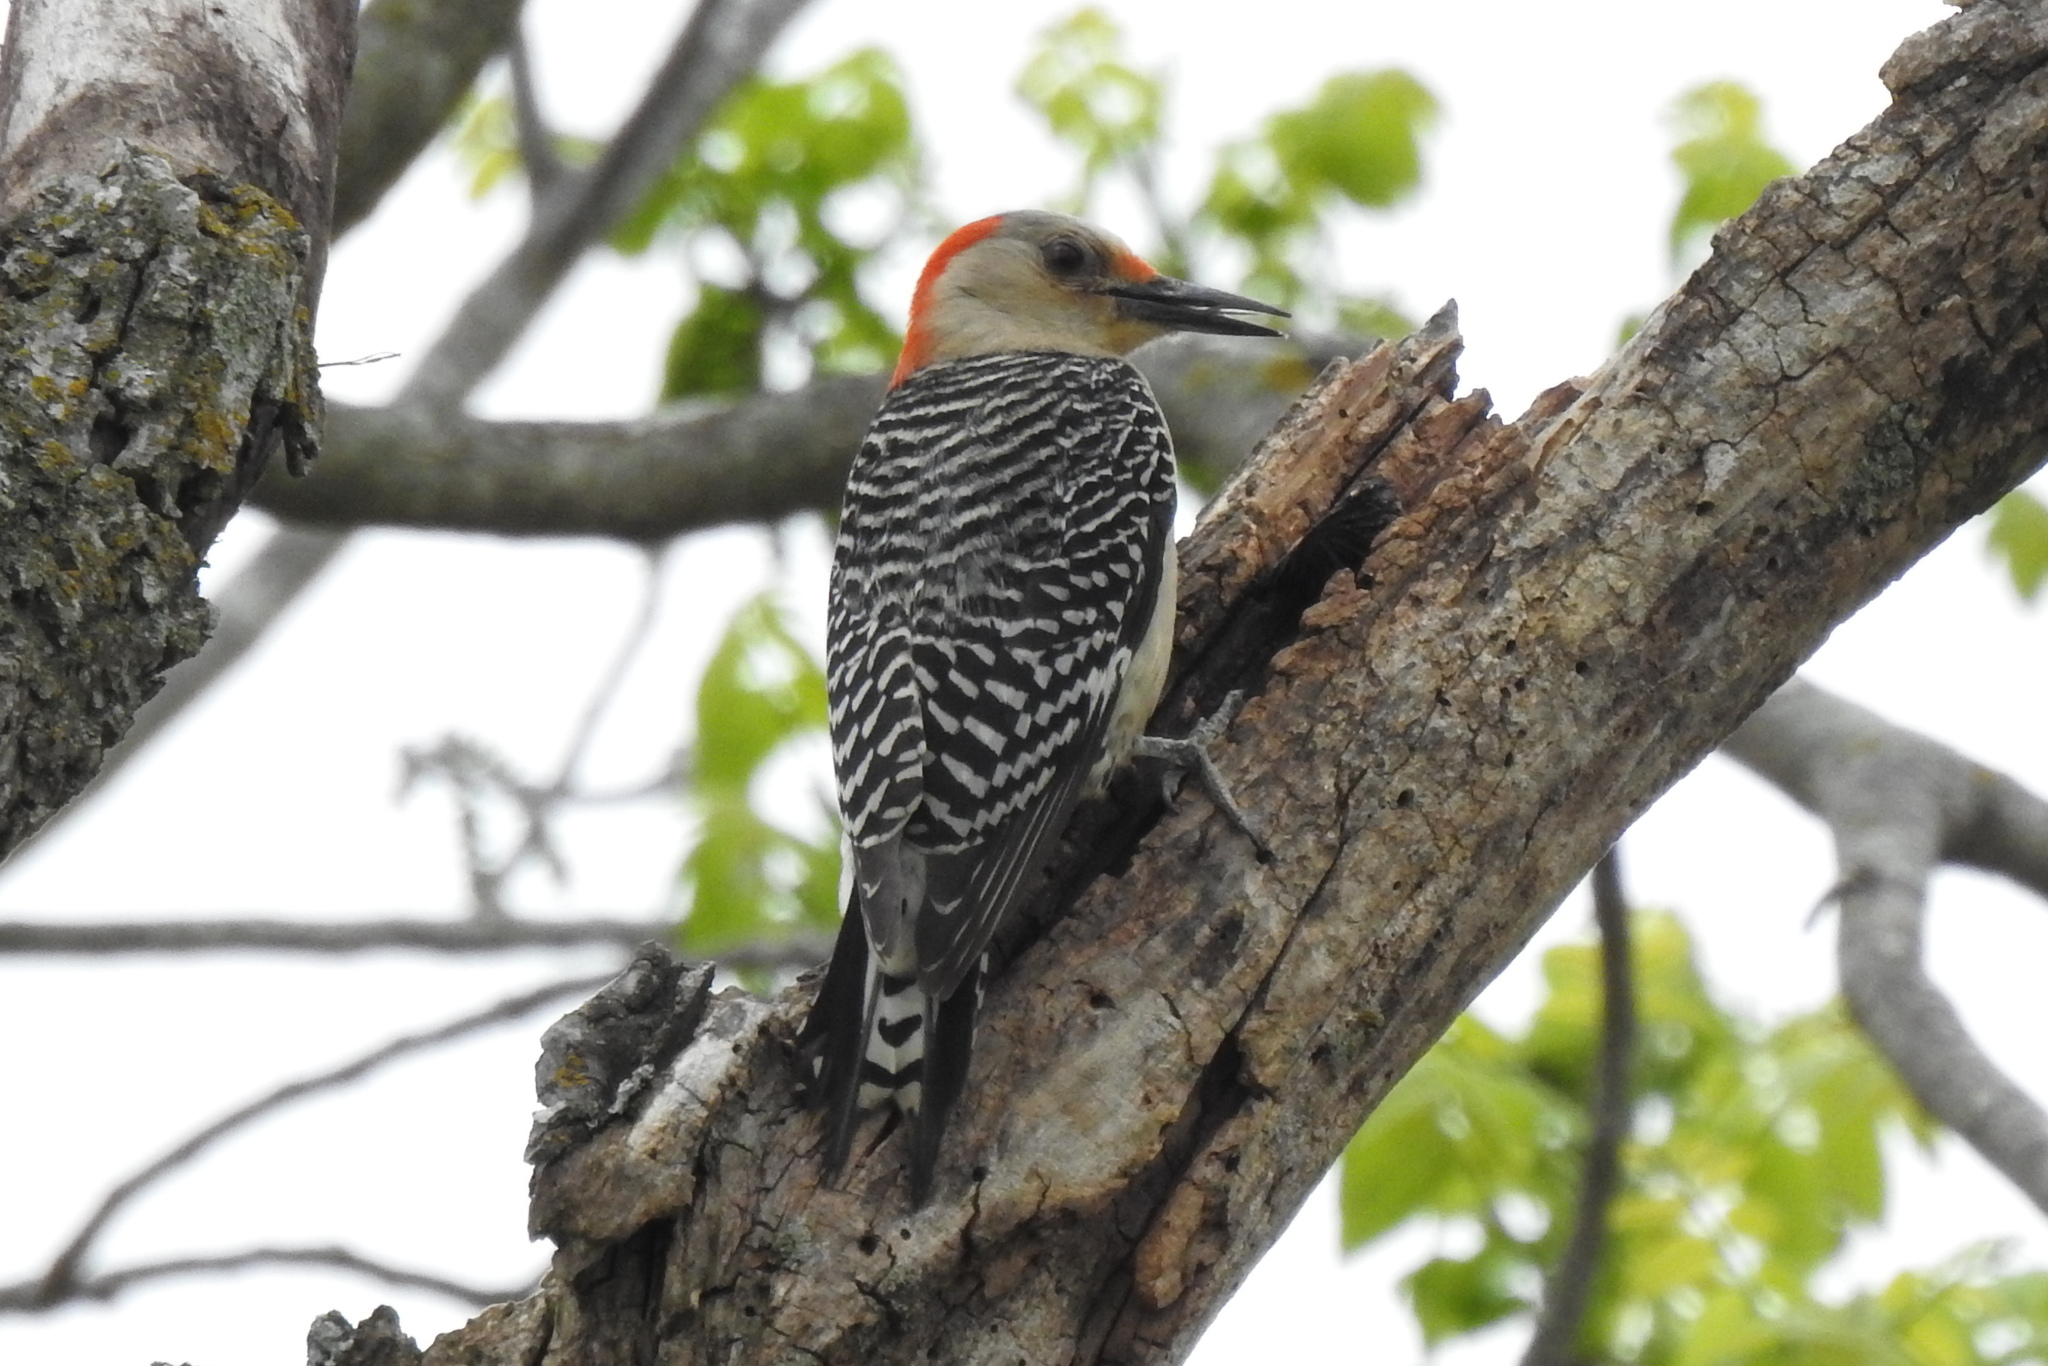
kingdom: Animalia
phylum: Chordata
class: Aves
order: Piciformes
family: Picidae
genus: Melanerpes
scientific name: Melanerpes carolinus
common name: Red-bellied woodpecker
